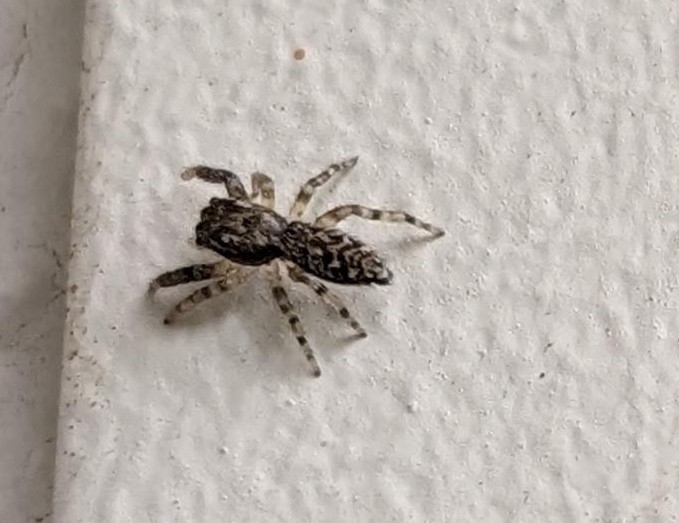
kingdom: Animalia
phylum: Arthropoda
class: Arachnida
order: Araneae
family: Salticidae
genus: Marpissa
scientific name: Marpissa muscosa
